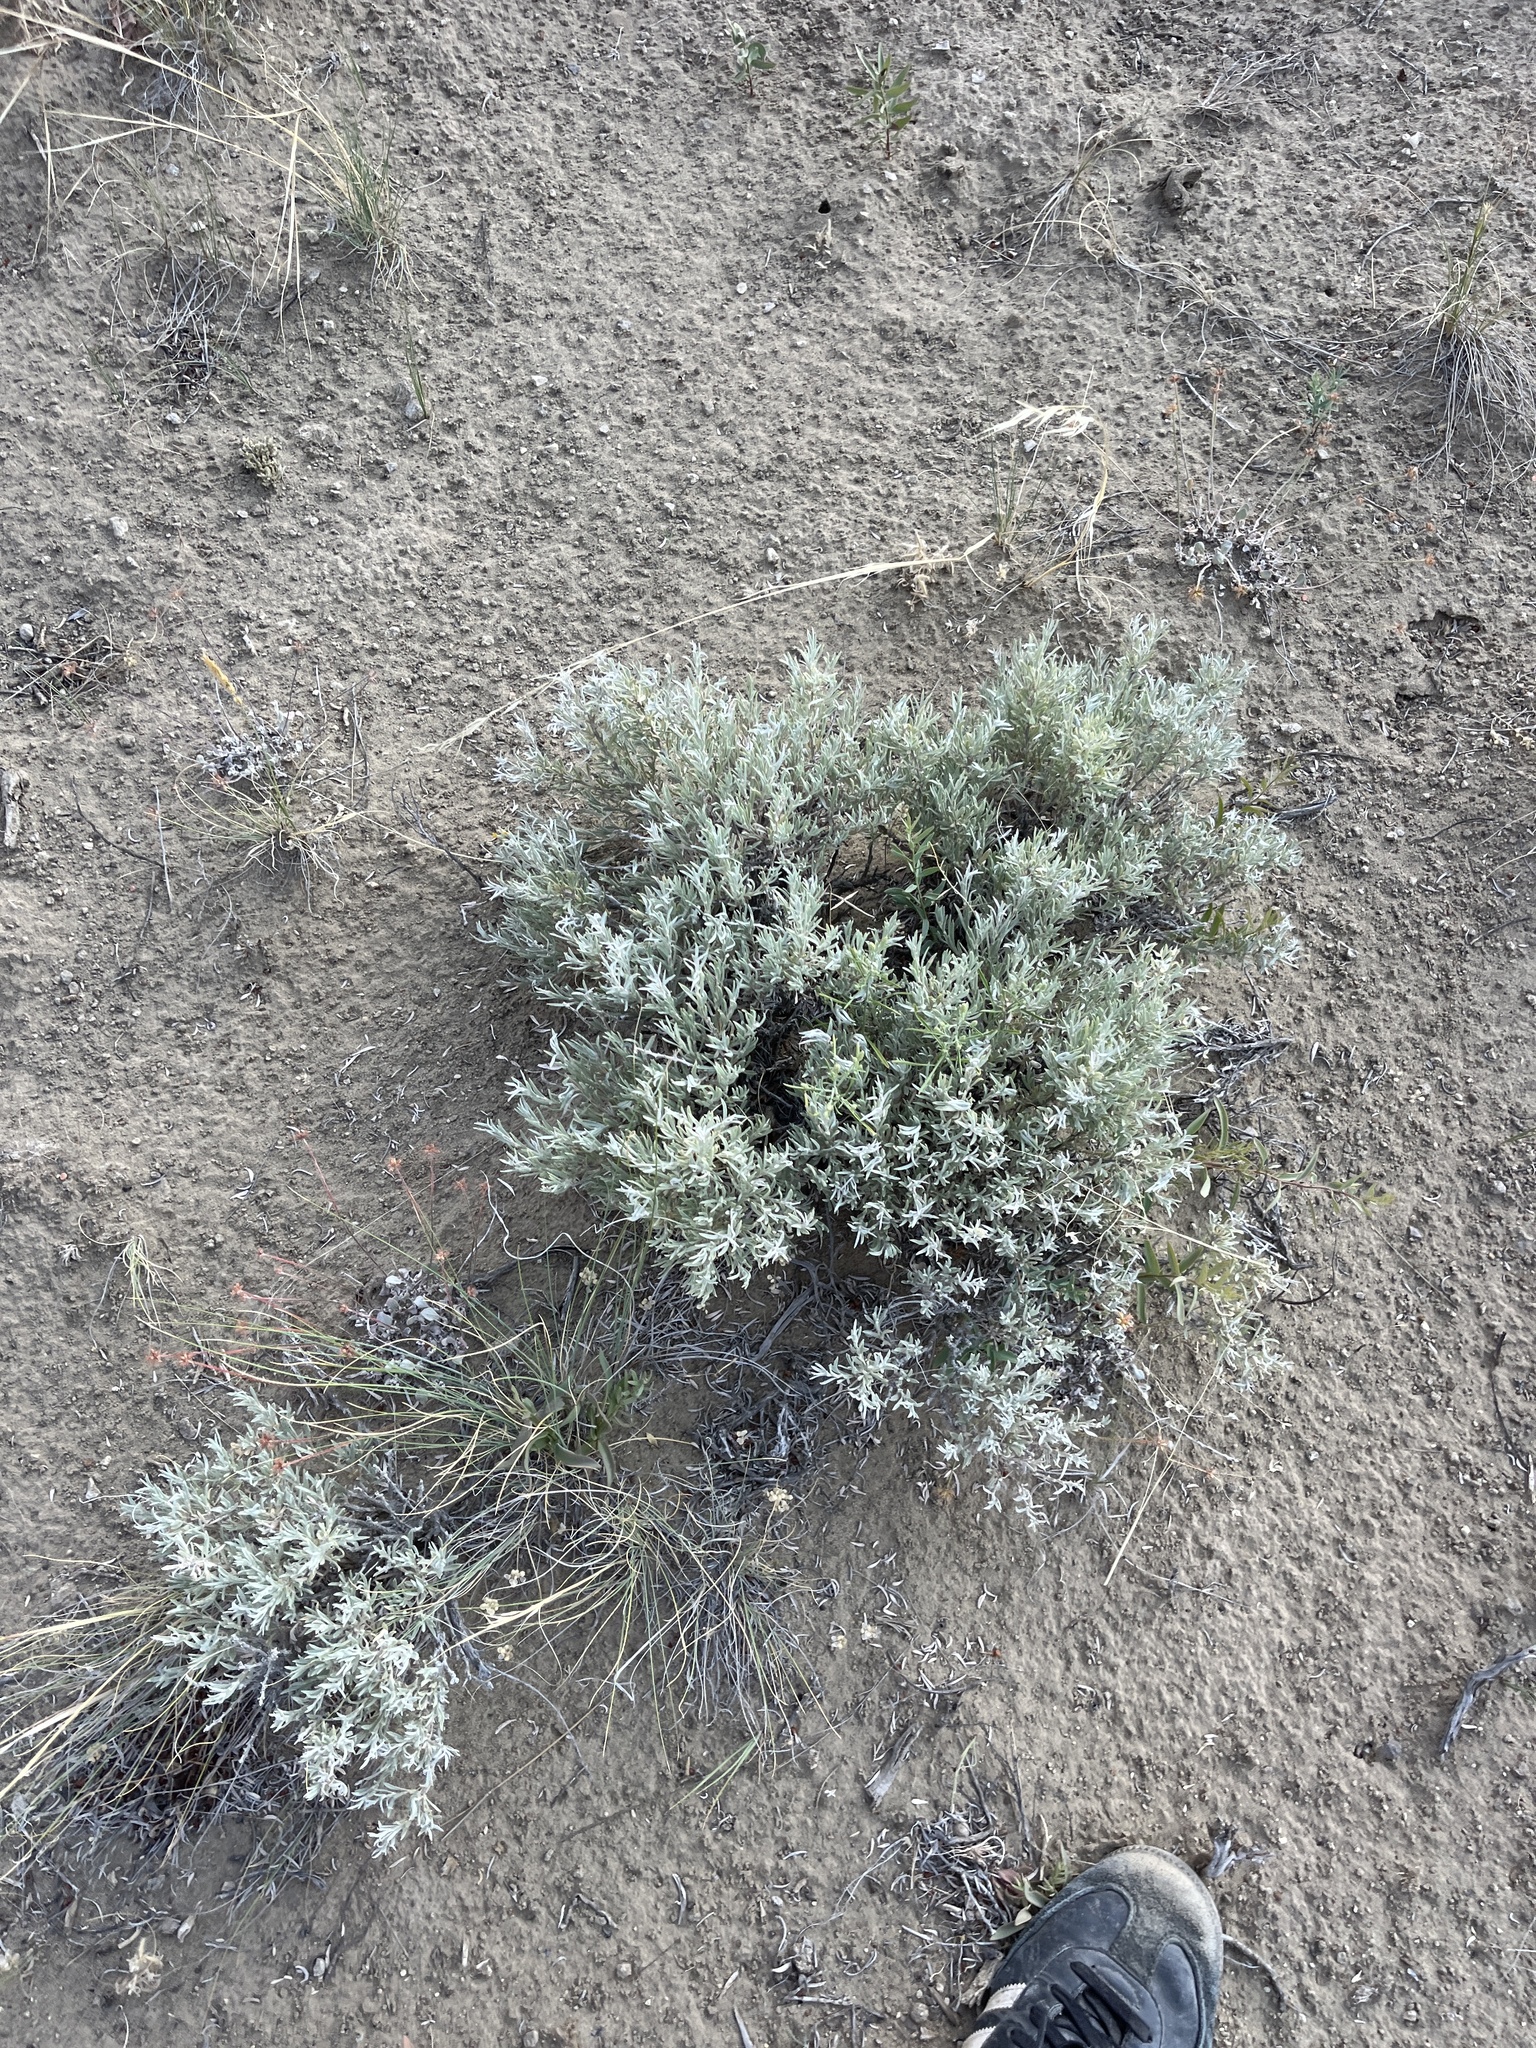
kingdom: Plantae
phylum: Tracheophyta
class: Magnoliopsida
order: Asterales
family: Asteraceae
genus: Tetradymia
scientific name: Tetradymia canescens
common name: Spineless horsebrush
